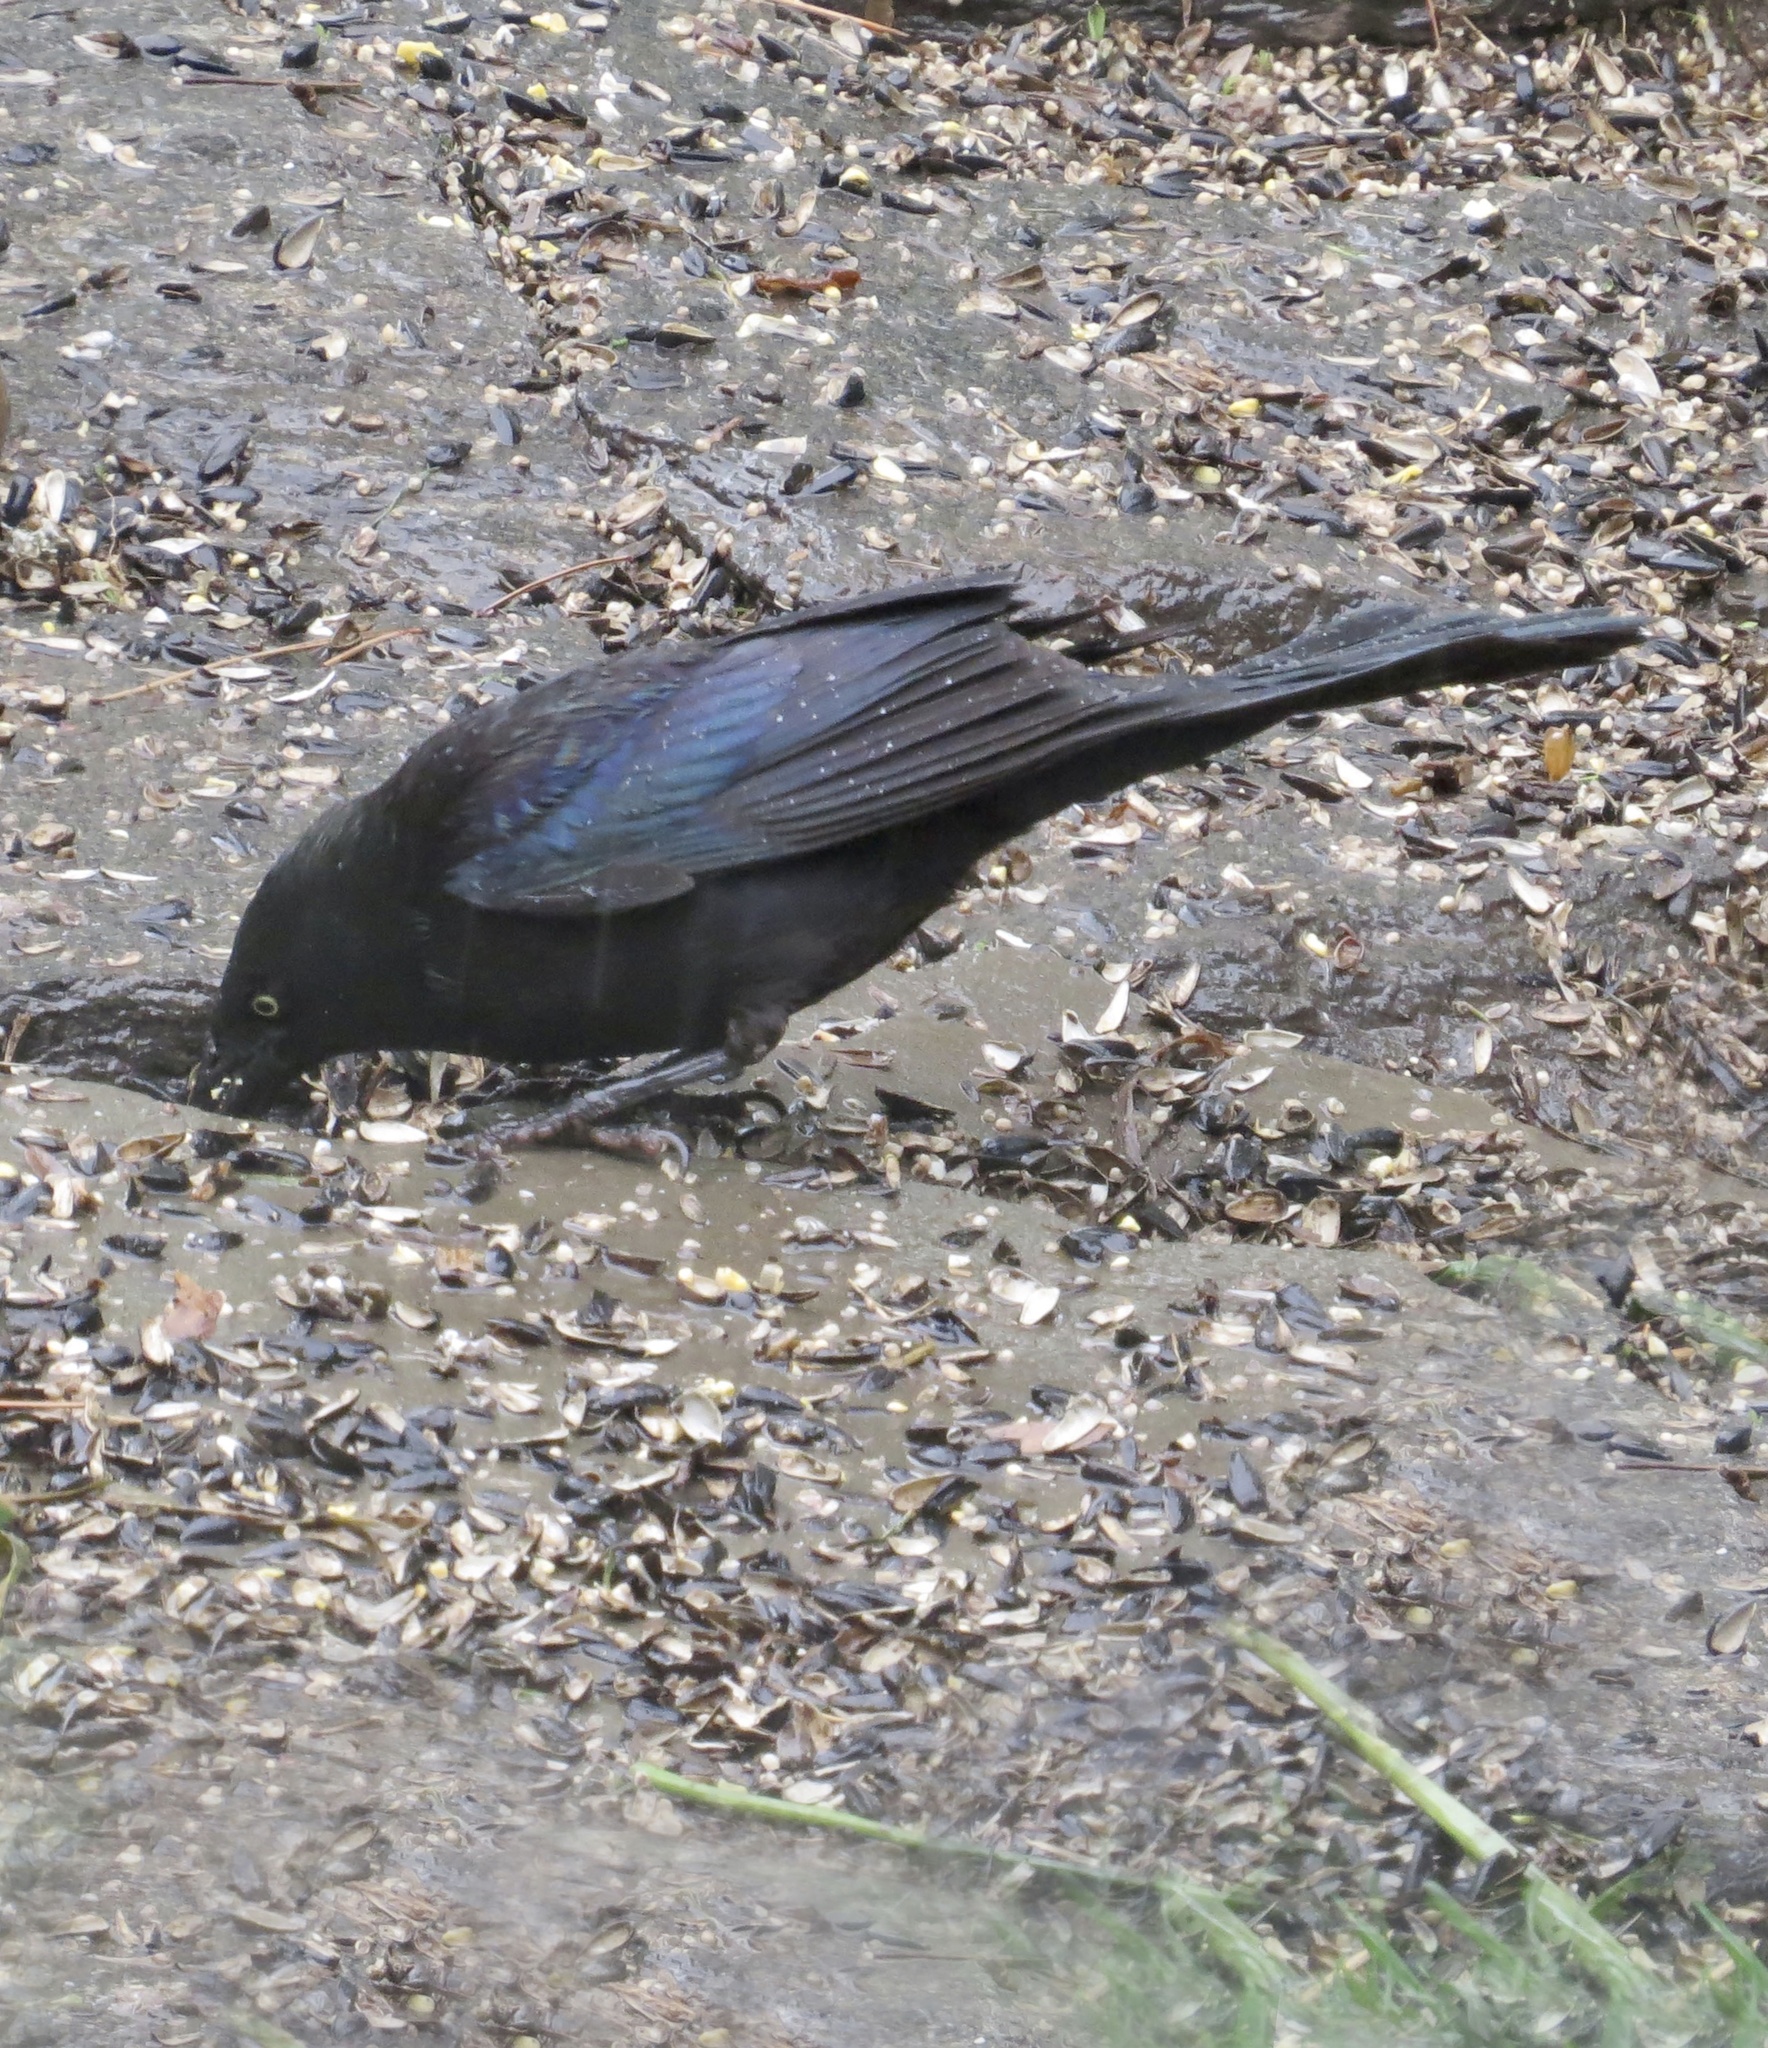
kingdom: Animalia
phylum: Chordata
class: Aves
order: Passeriformes
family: Icteridae
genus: Quiscalus
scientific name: Quiscalus quiscula
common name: Common grackle
